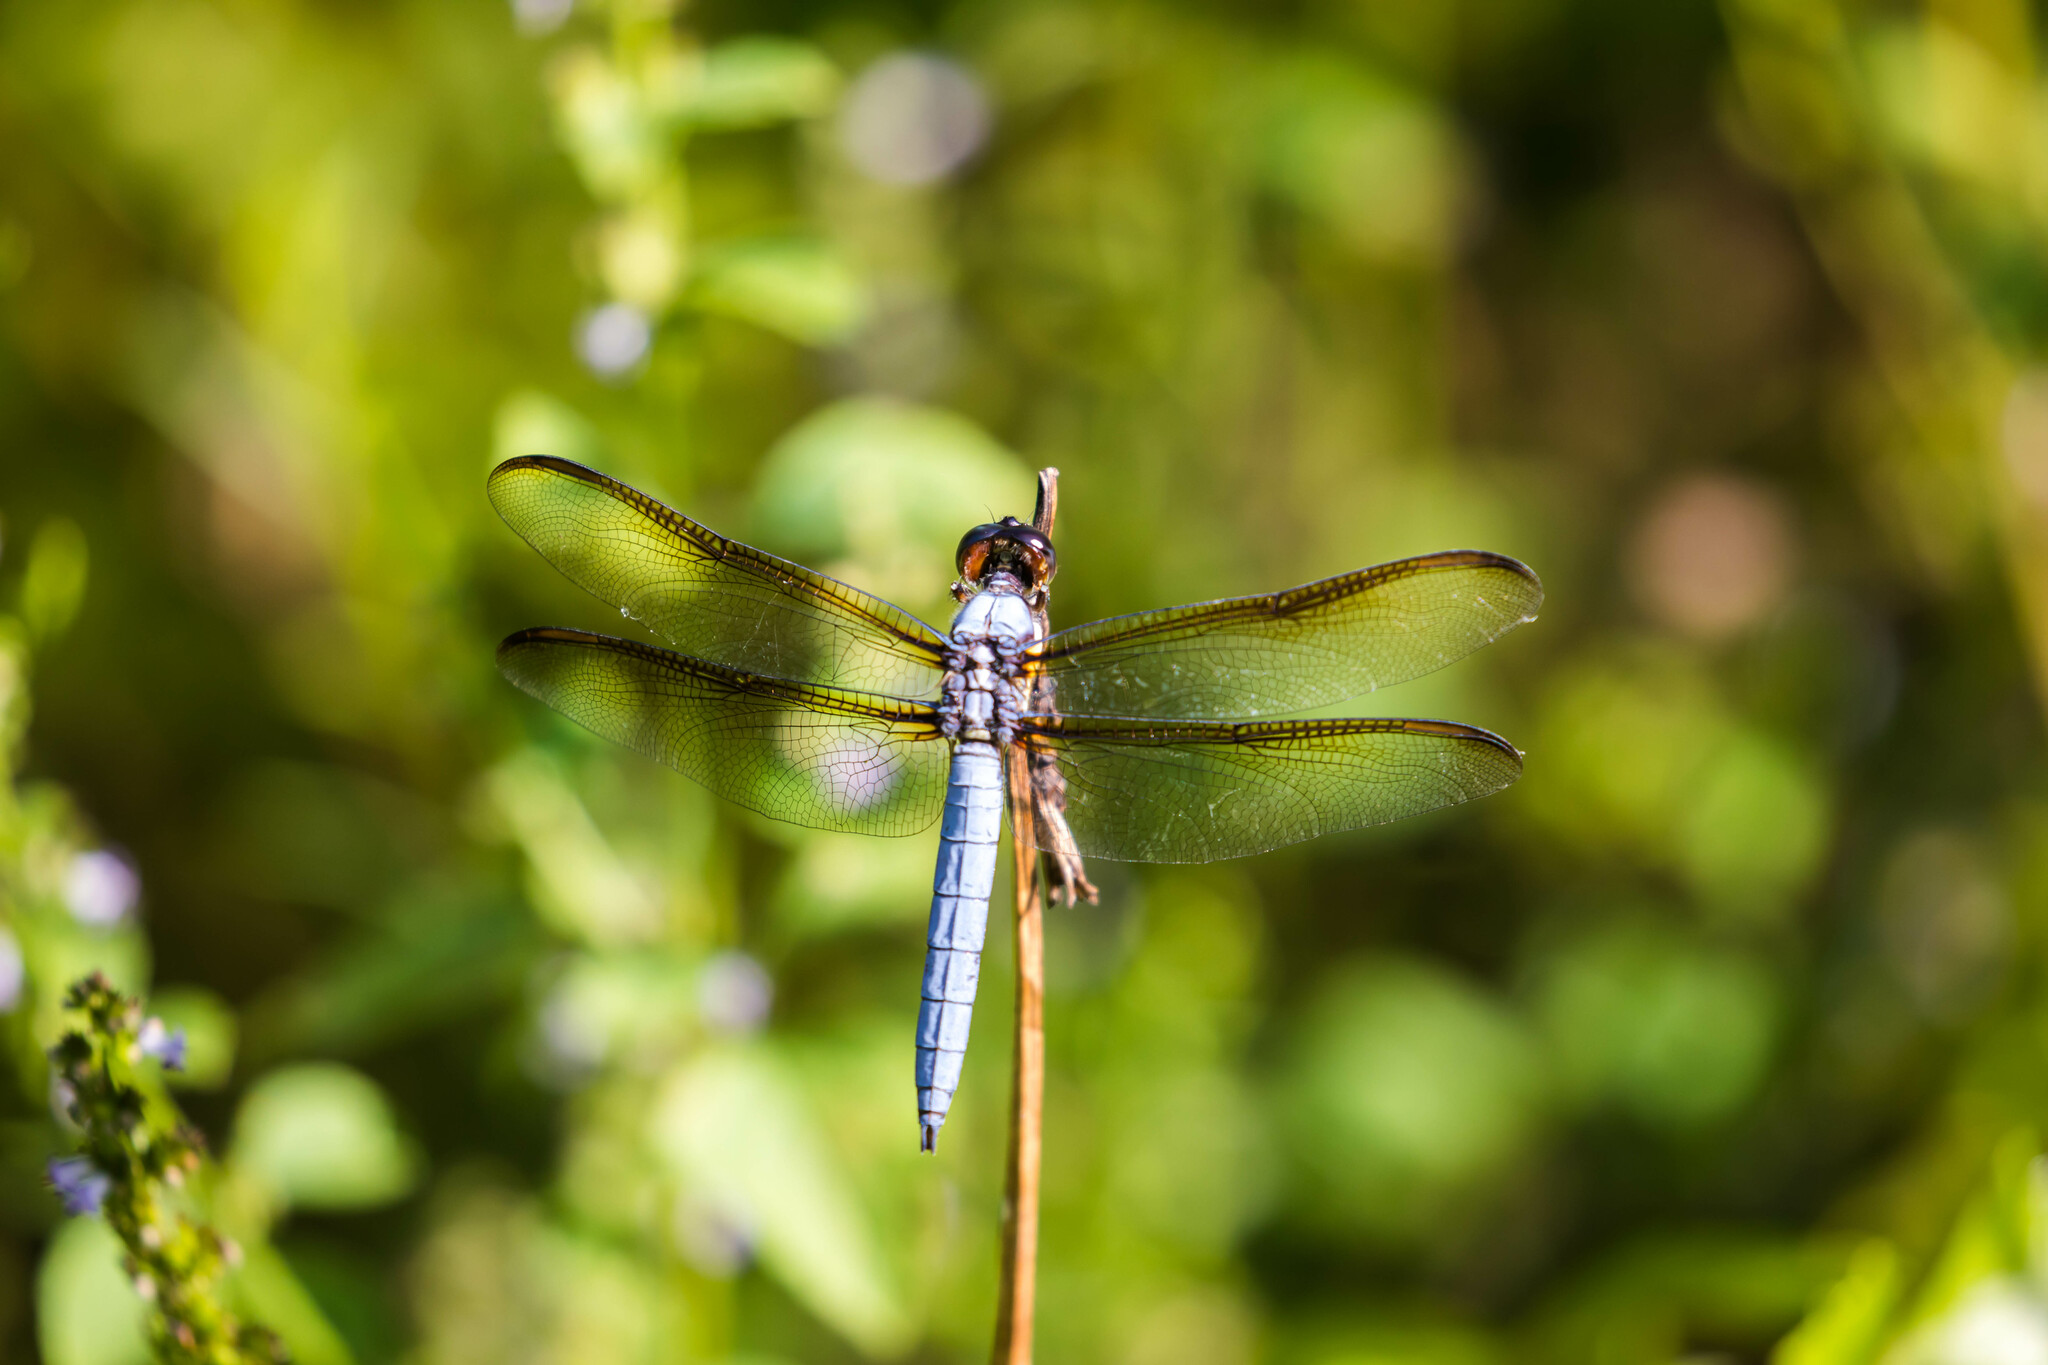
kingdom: Animalia
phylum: Arthropoda
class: Insecta
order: Odonata
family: Libellulidae
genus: Libellula
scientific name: Libellula flavida
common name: Yellow-sided skimmer
